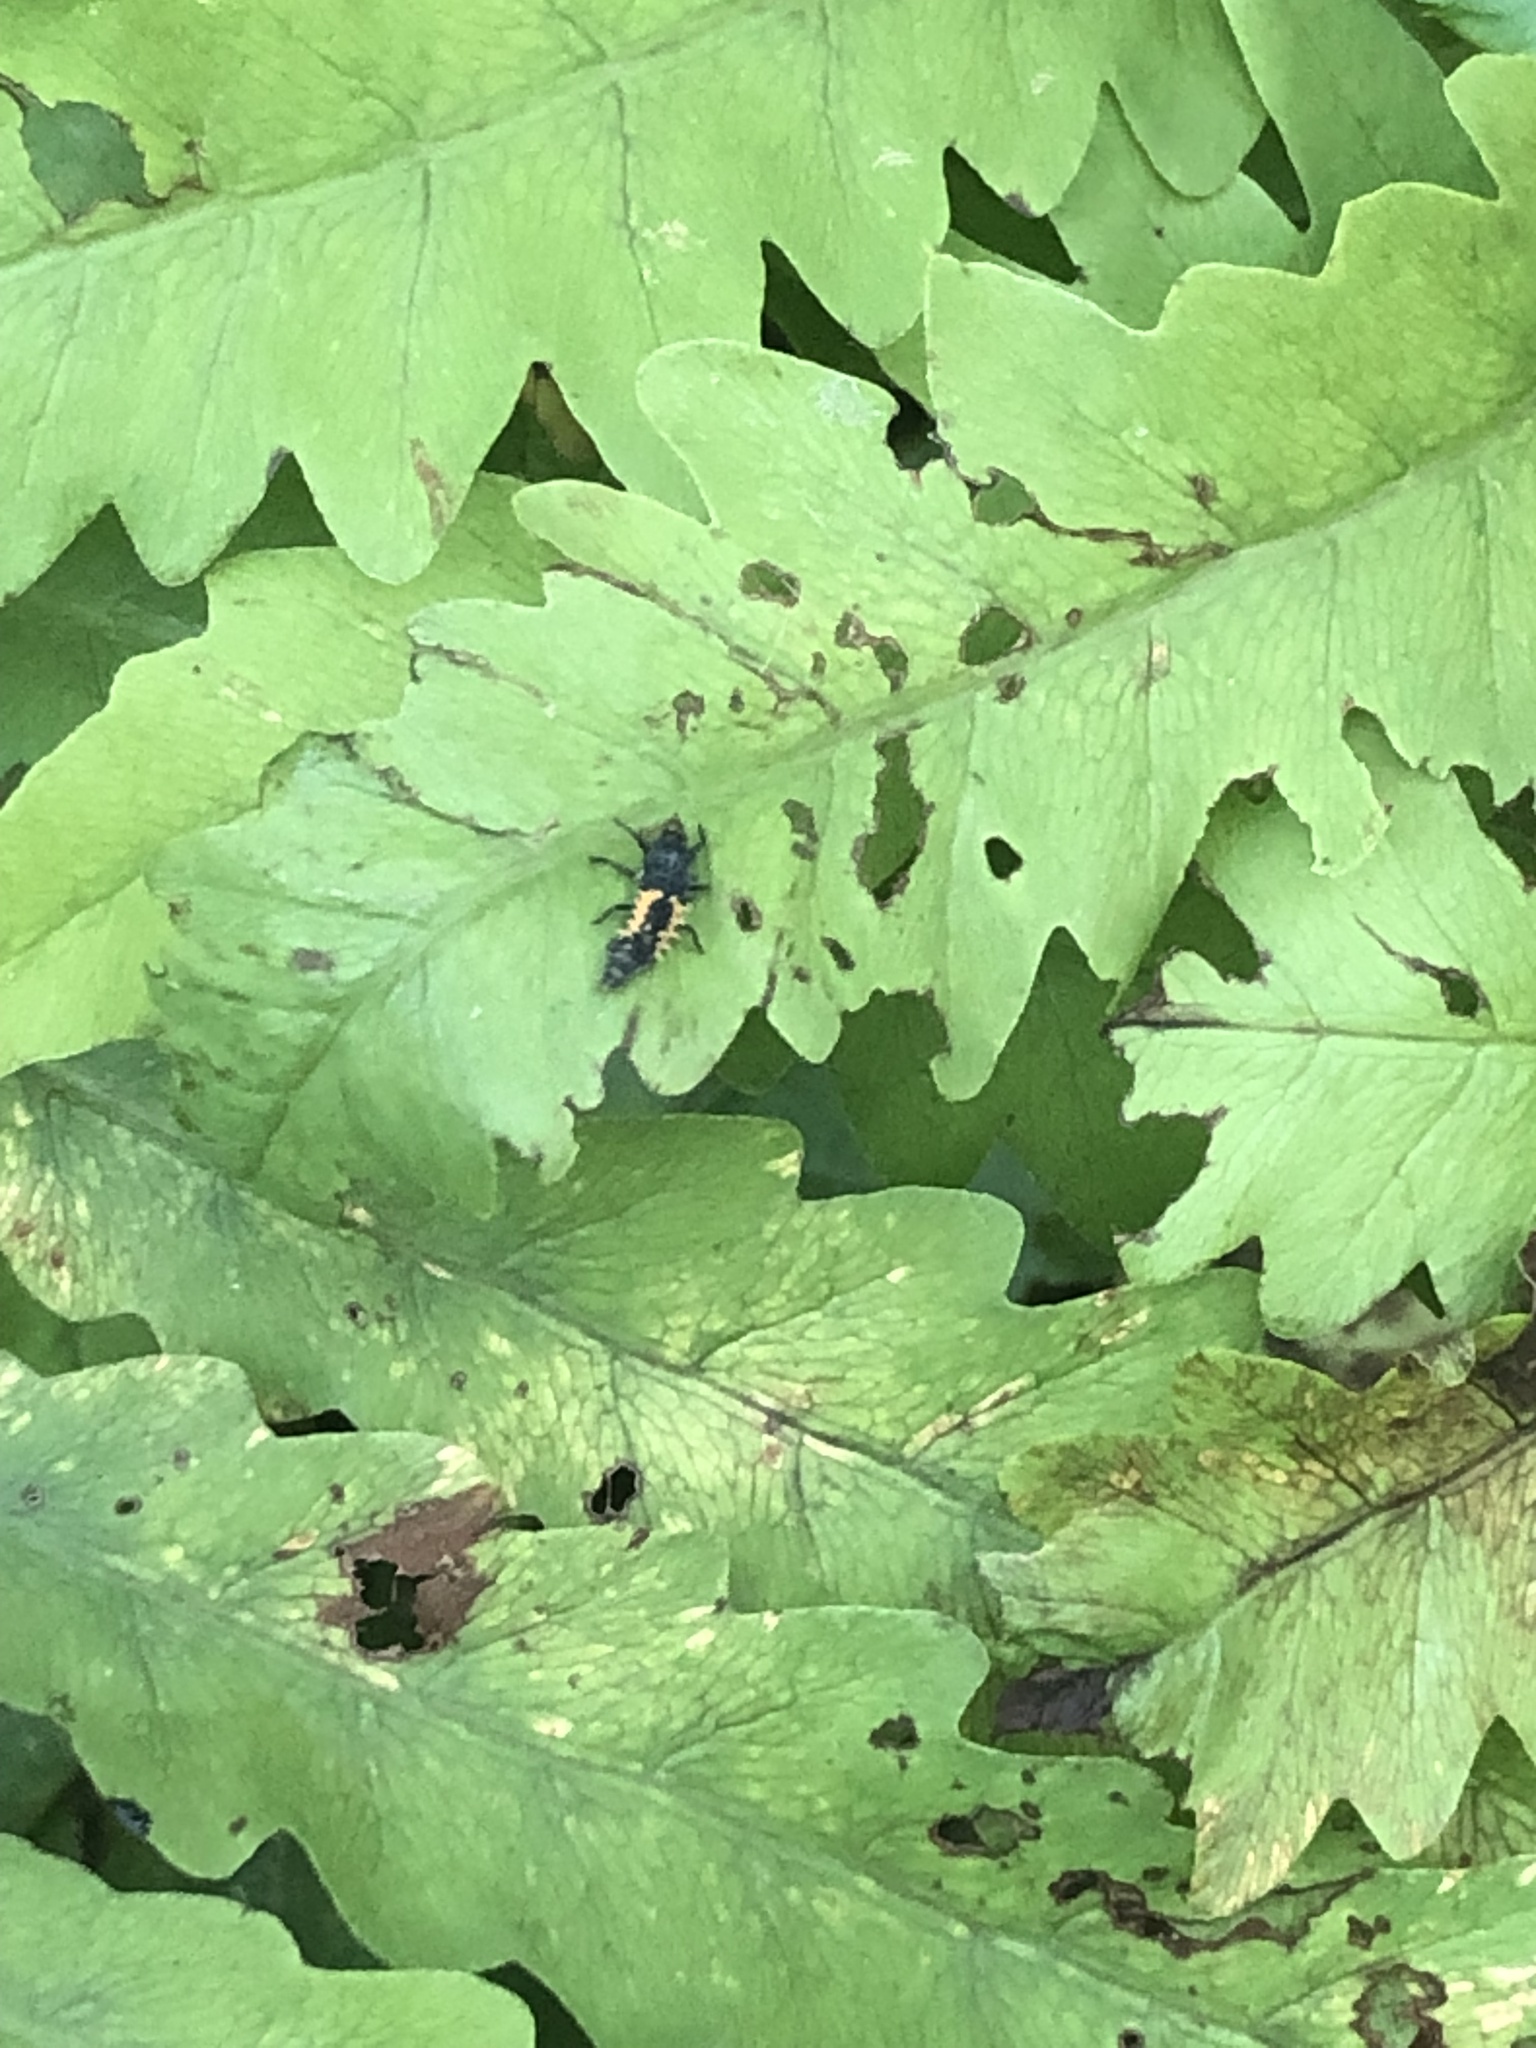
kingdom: Animalia
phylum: Arthropoda
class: Insecta
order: Coleoptera
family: Coccinellidae
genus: Harmonia
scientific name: Harmonia axyridis
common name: Harlequin ladybird
